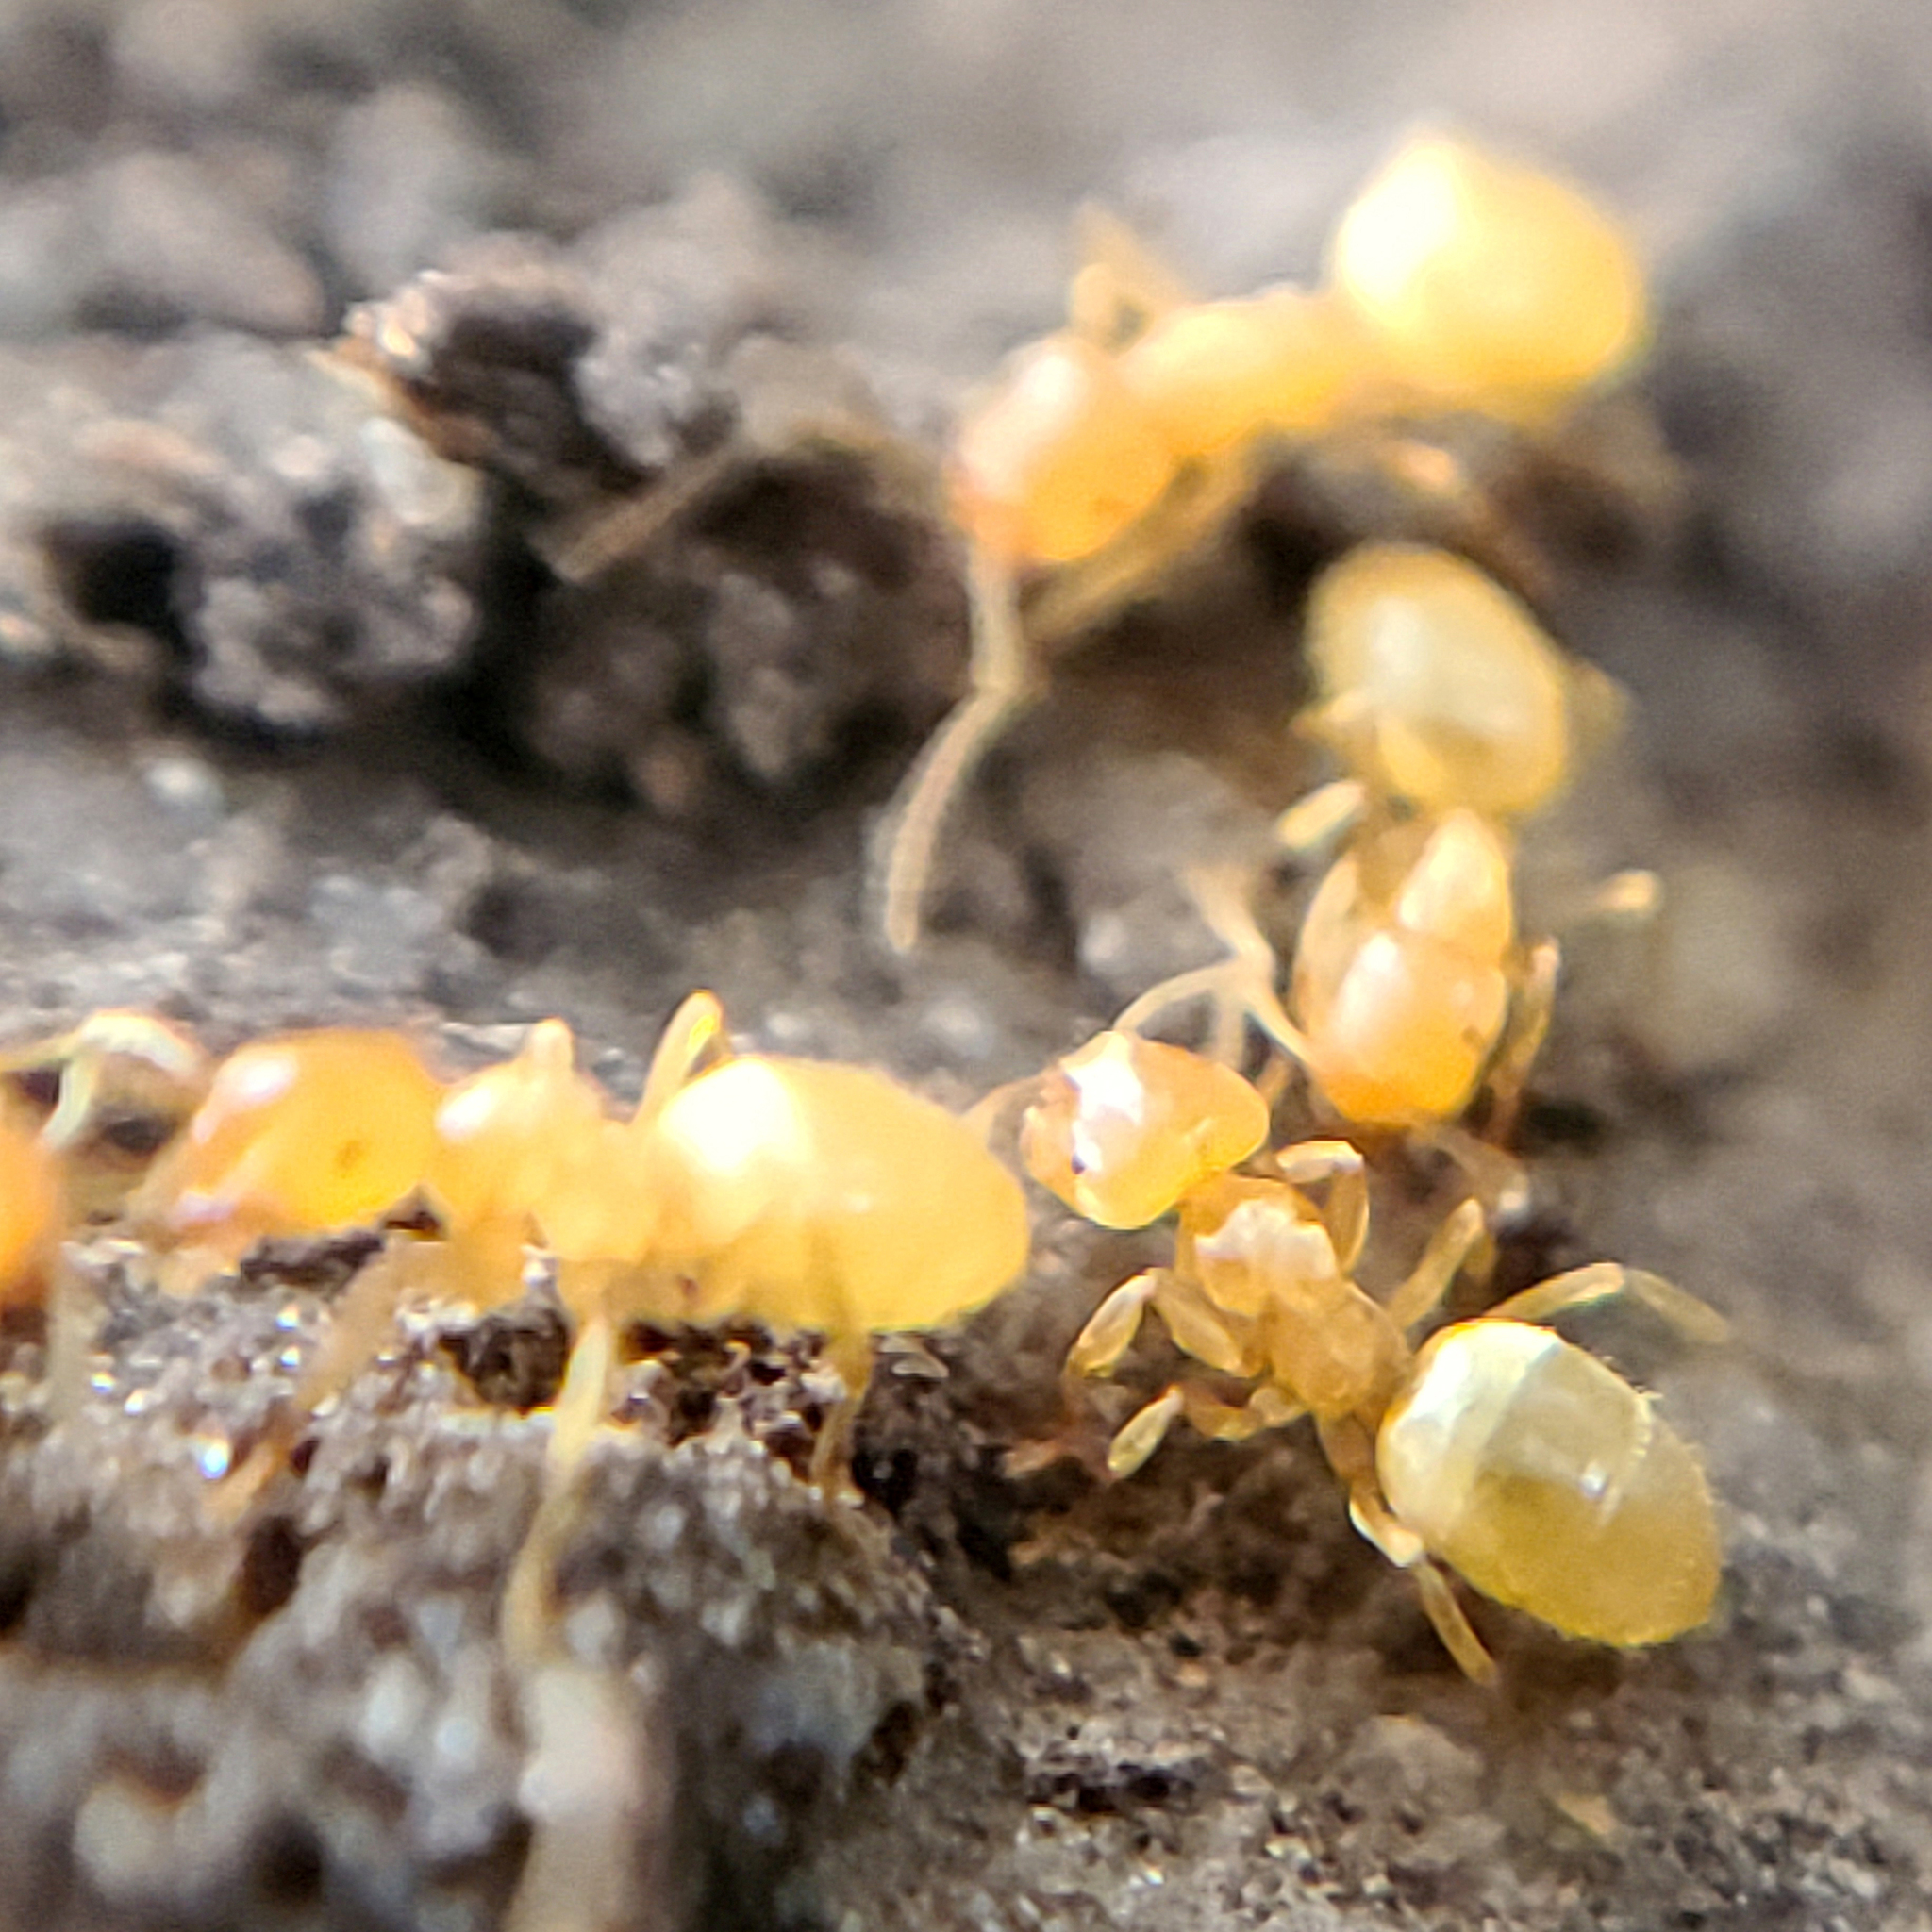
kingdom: Animalia
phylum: Arthropoda
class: Insecta
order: Hymenoptera
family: Formicidae
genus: Cautolasius
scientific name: Cautolasius
